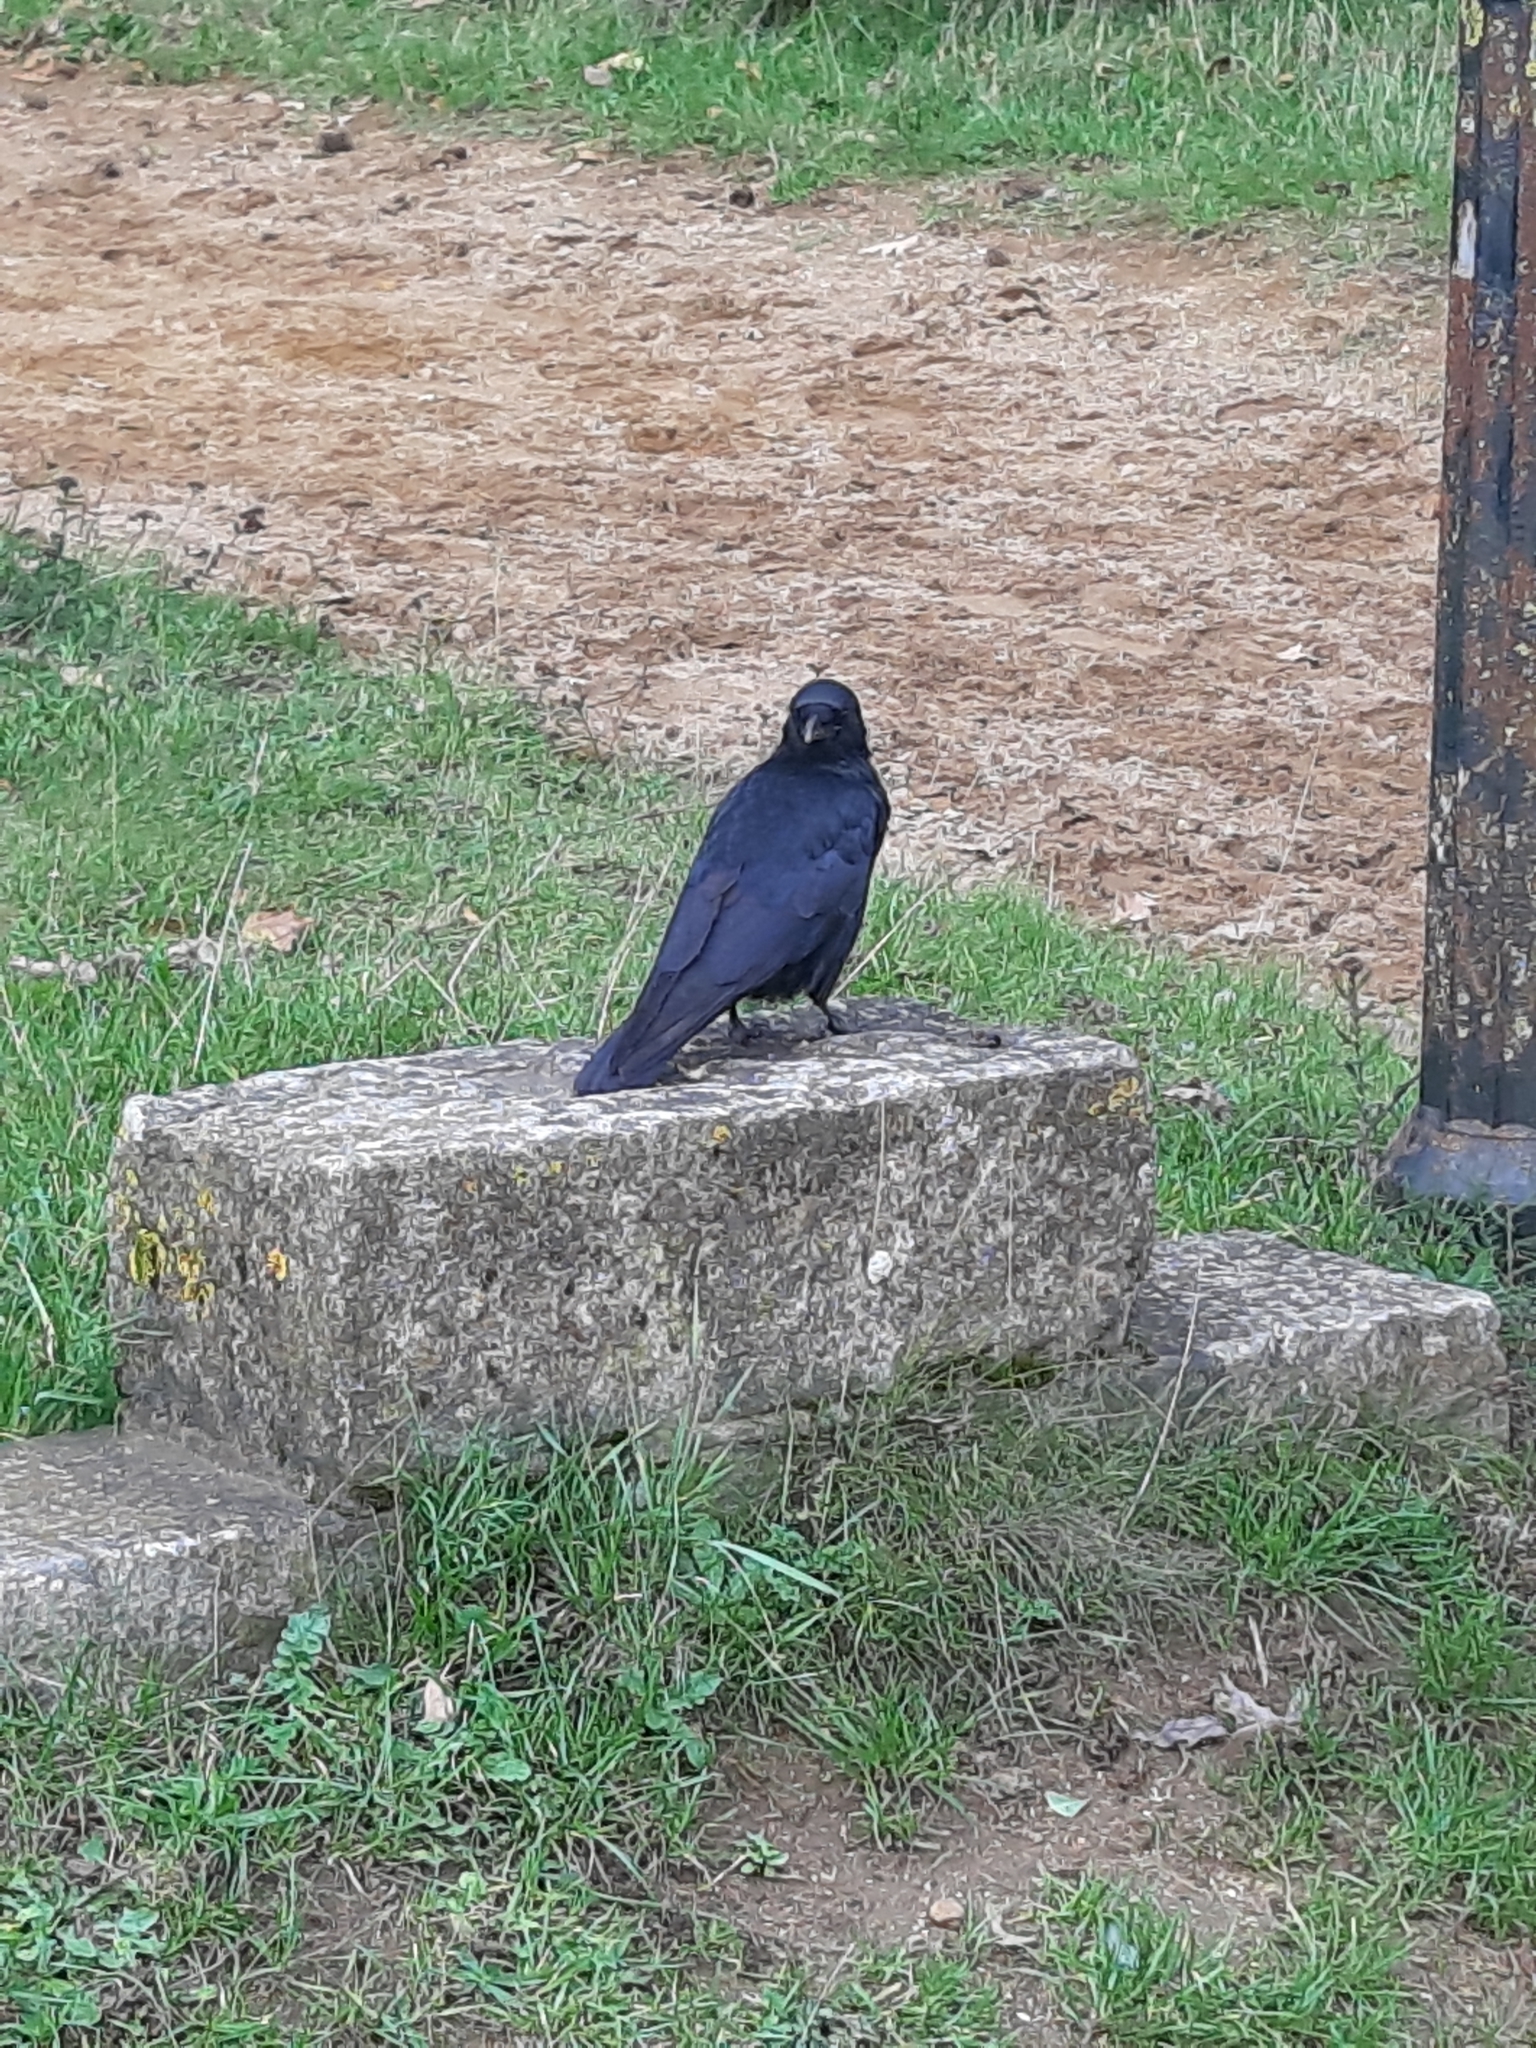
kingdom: Animalia
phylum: Chordata
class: Aves
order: Passeriformes
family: Corvidae
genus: Corvus
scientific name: Corvus corone
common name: Carrion crow
